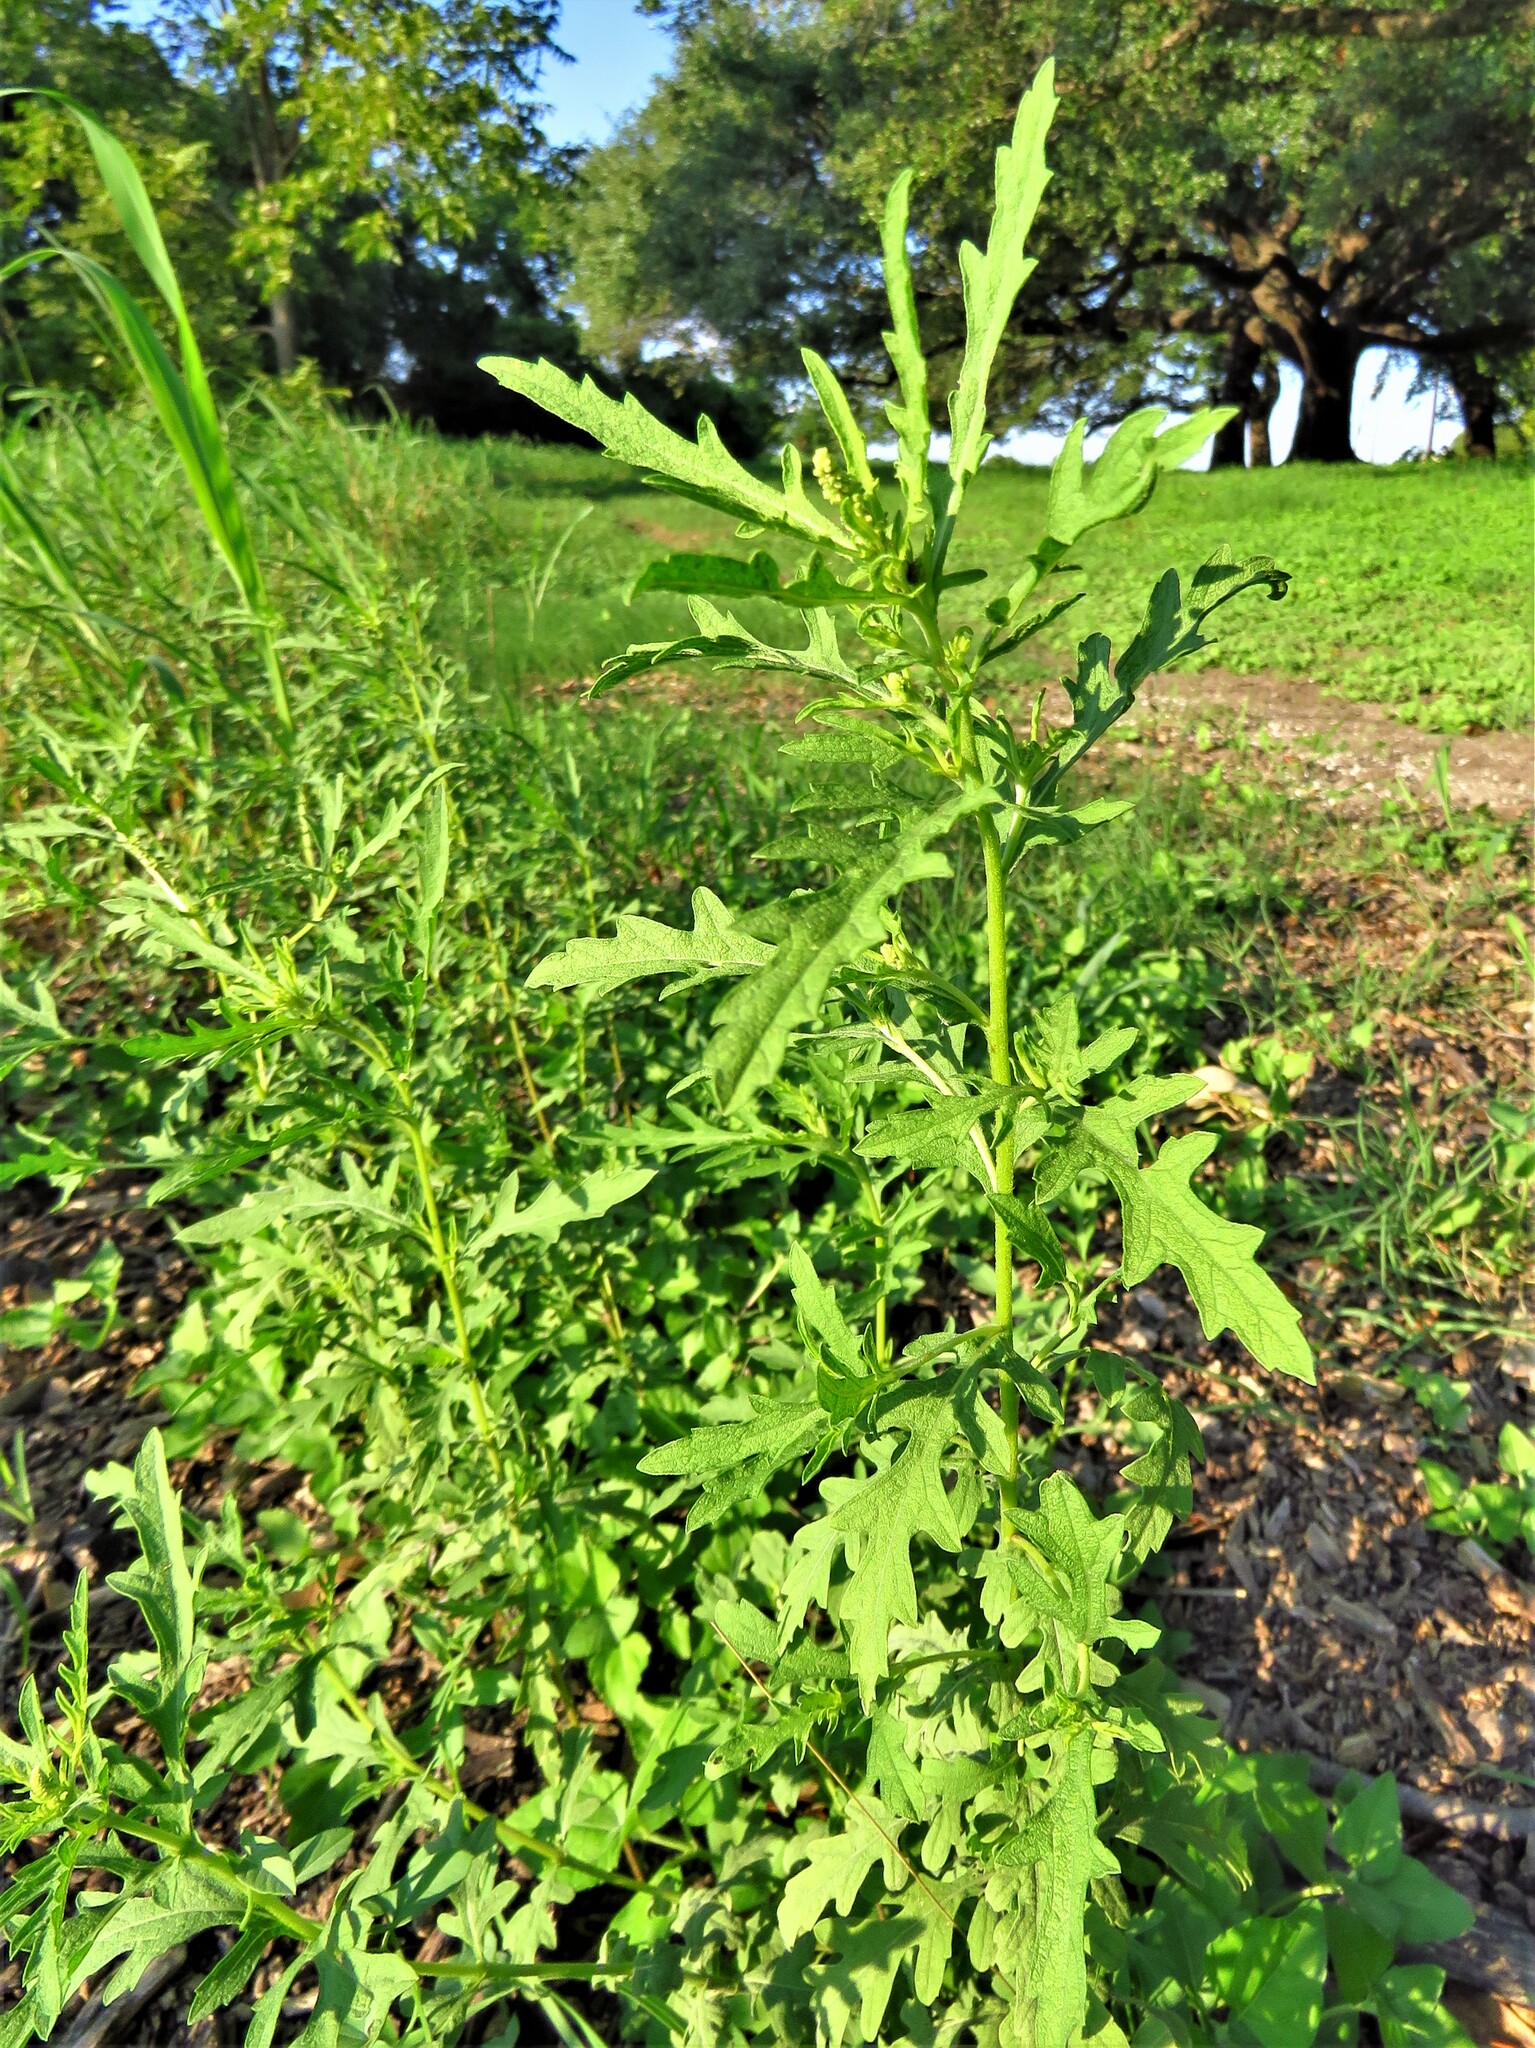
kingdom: Plantae
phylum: Tracheophyta
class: Magnoliopsida
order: Asterales
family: Asteraceae
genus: Ambrosia
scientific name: Ambrosia psilostachya
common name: Perennial ragweed
